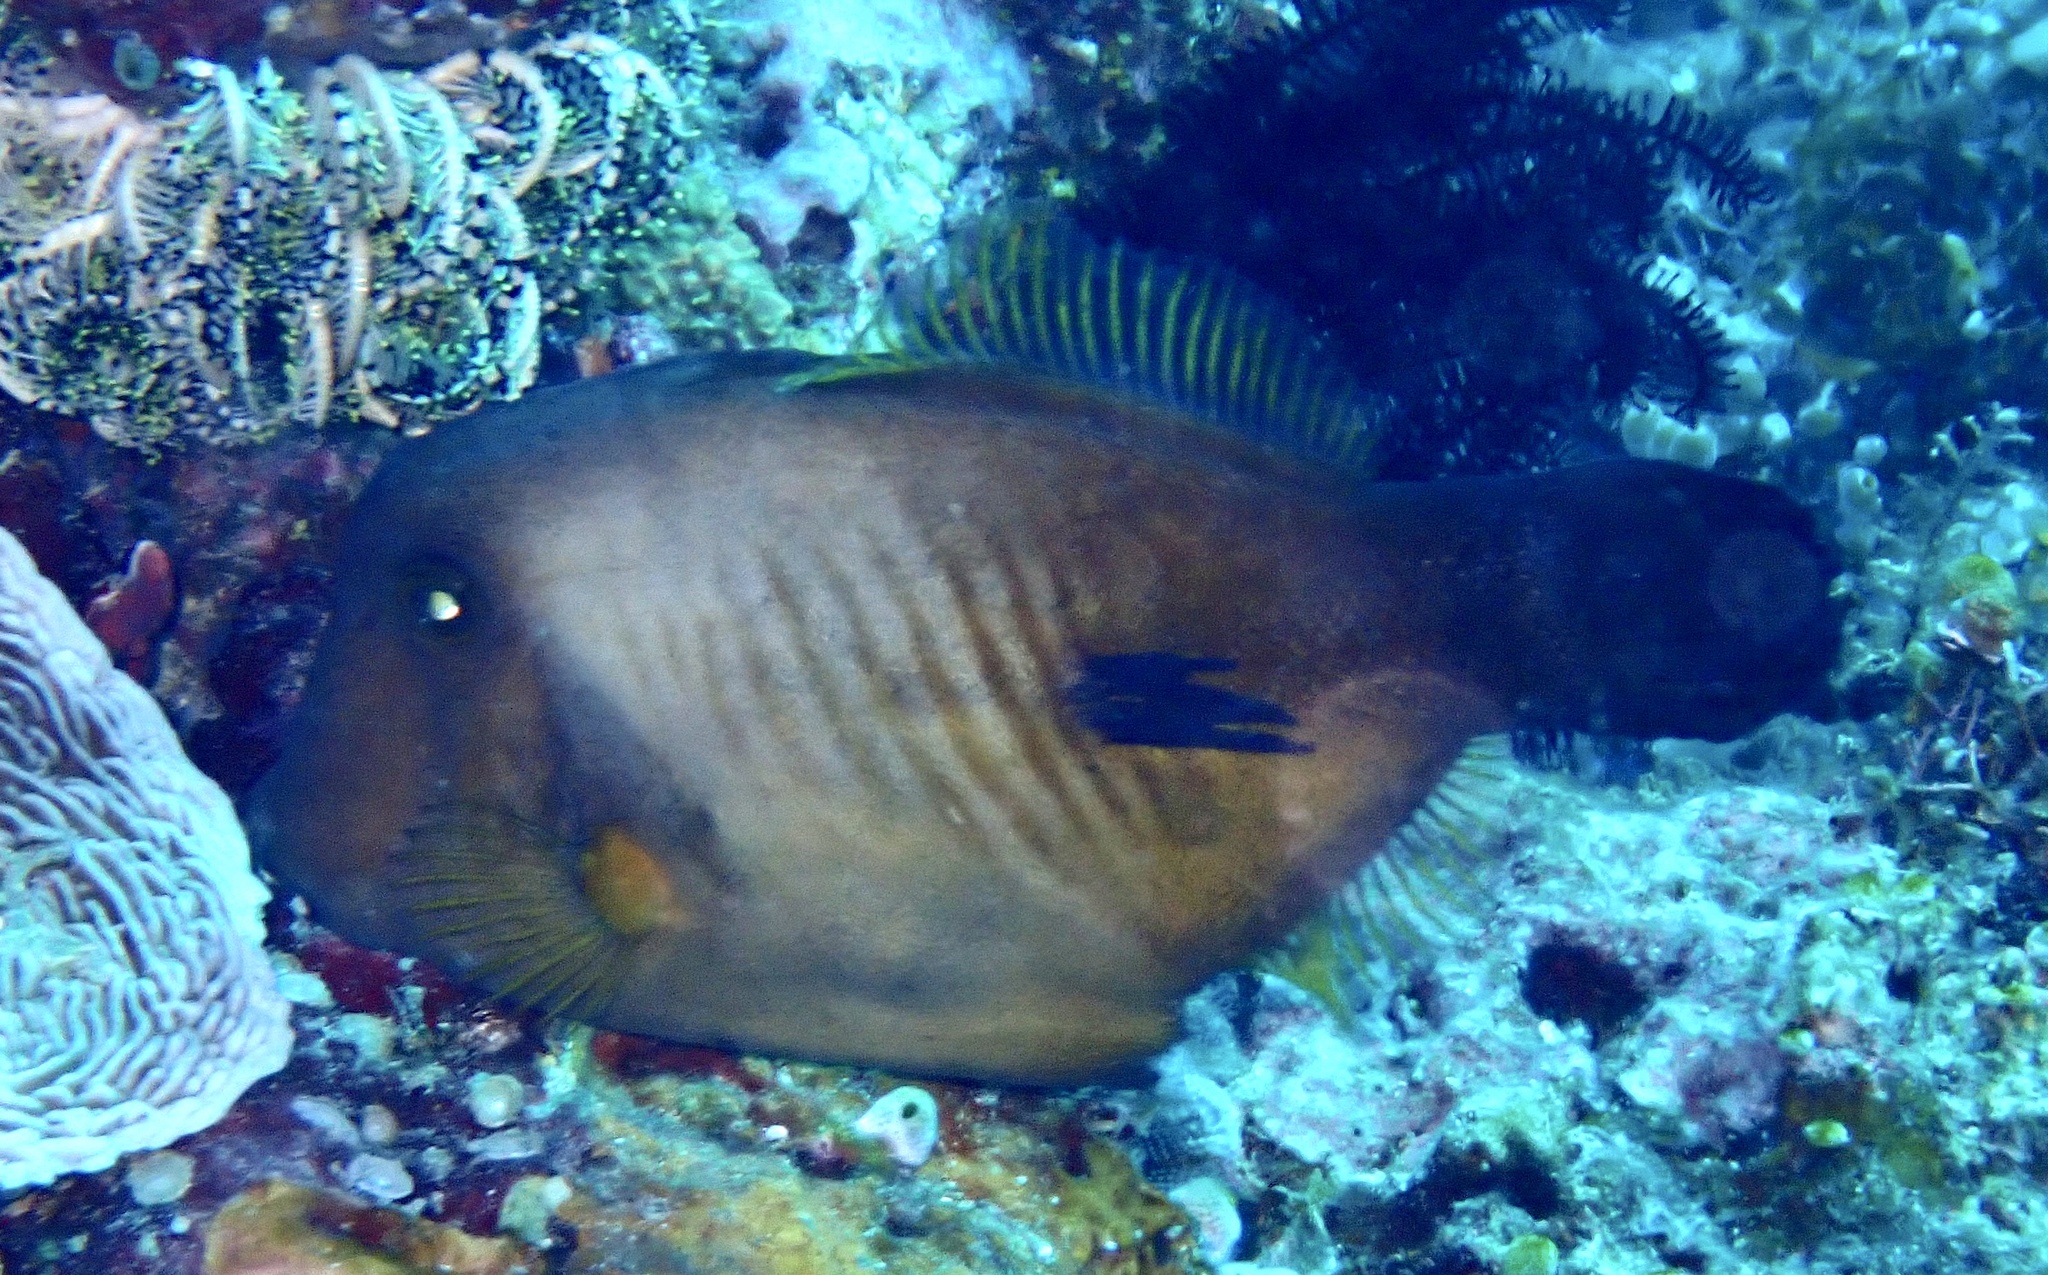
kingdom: Animalia
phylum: Chordata
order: Tetraodontiformes
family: Monacanthidae
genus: Amanses
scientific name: Amanses scopas
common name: Broom filefish
